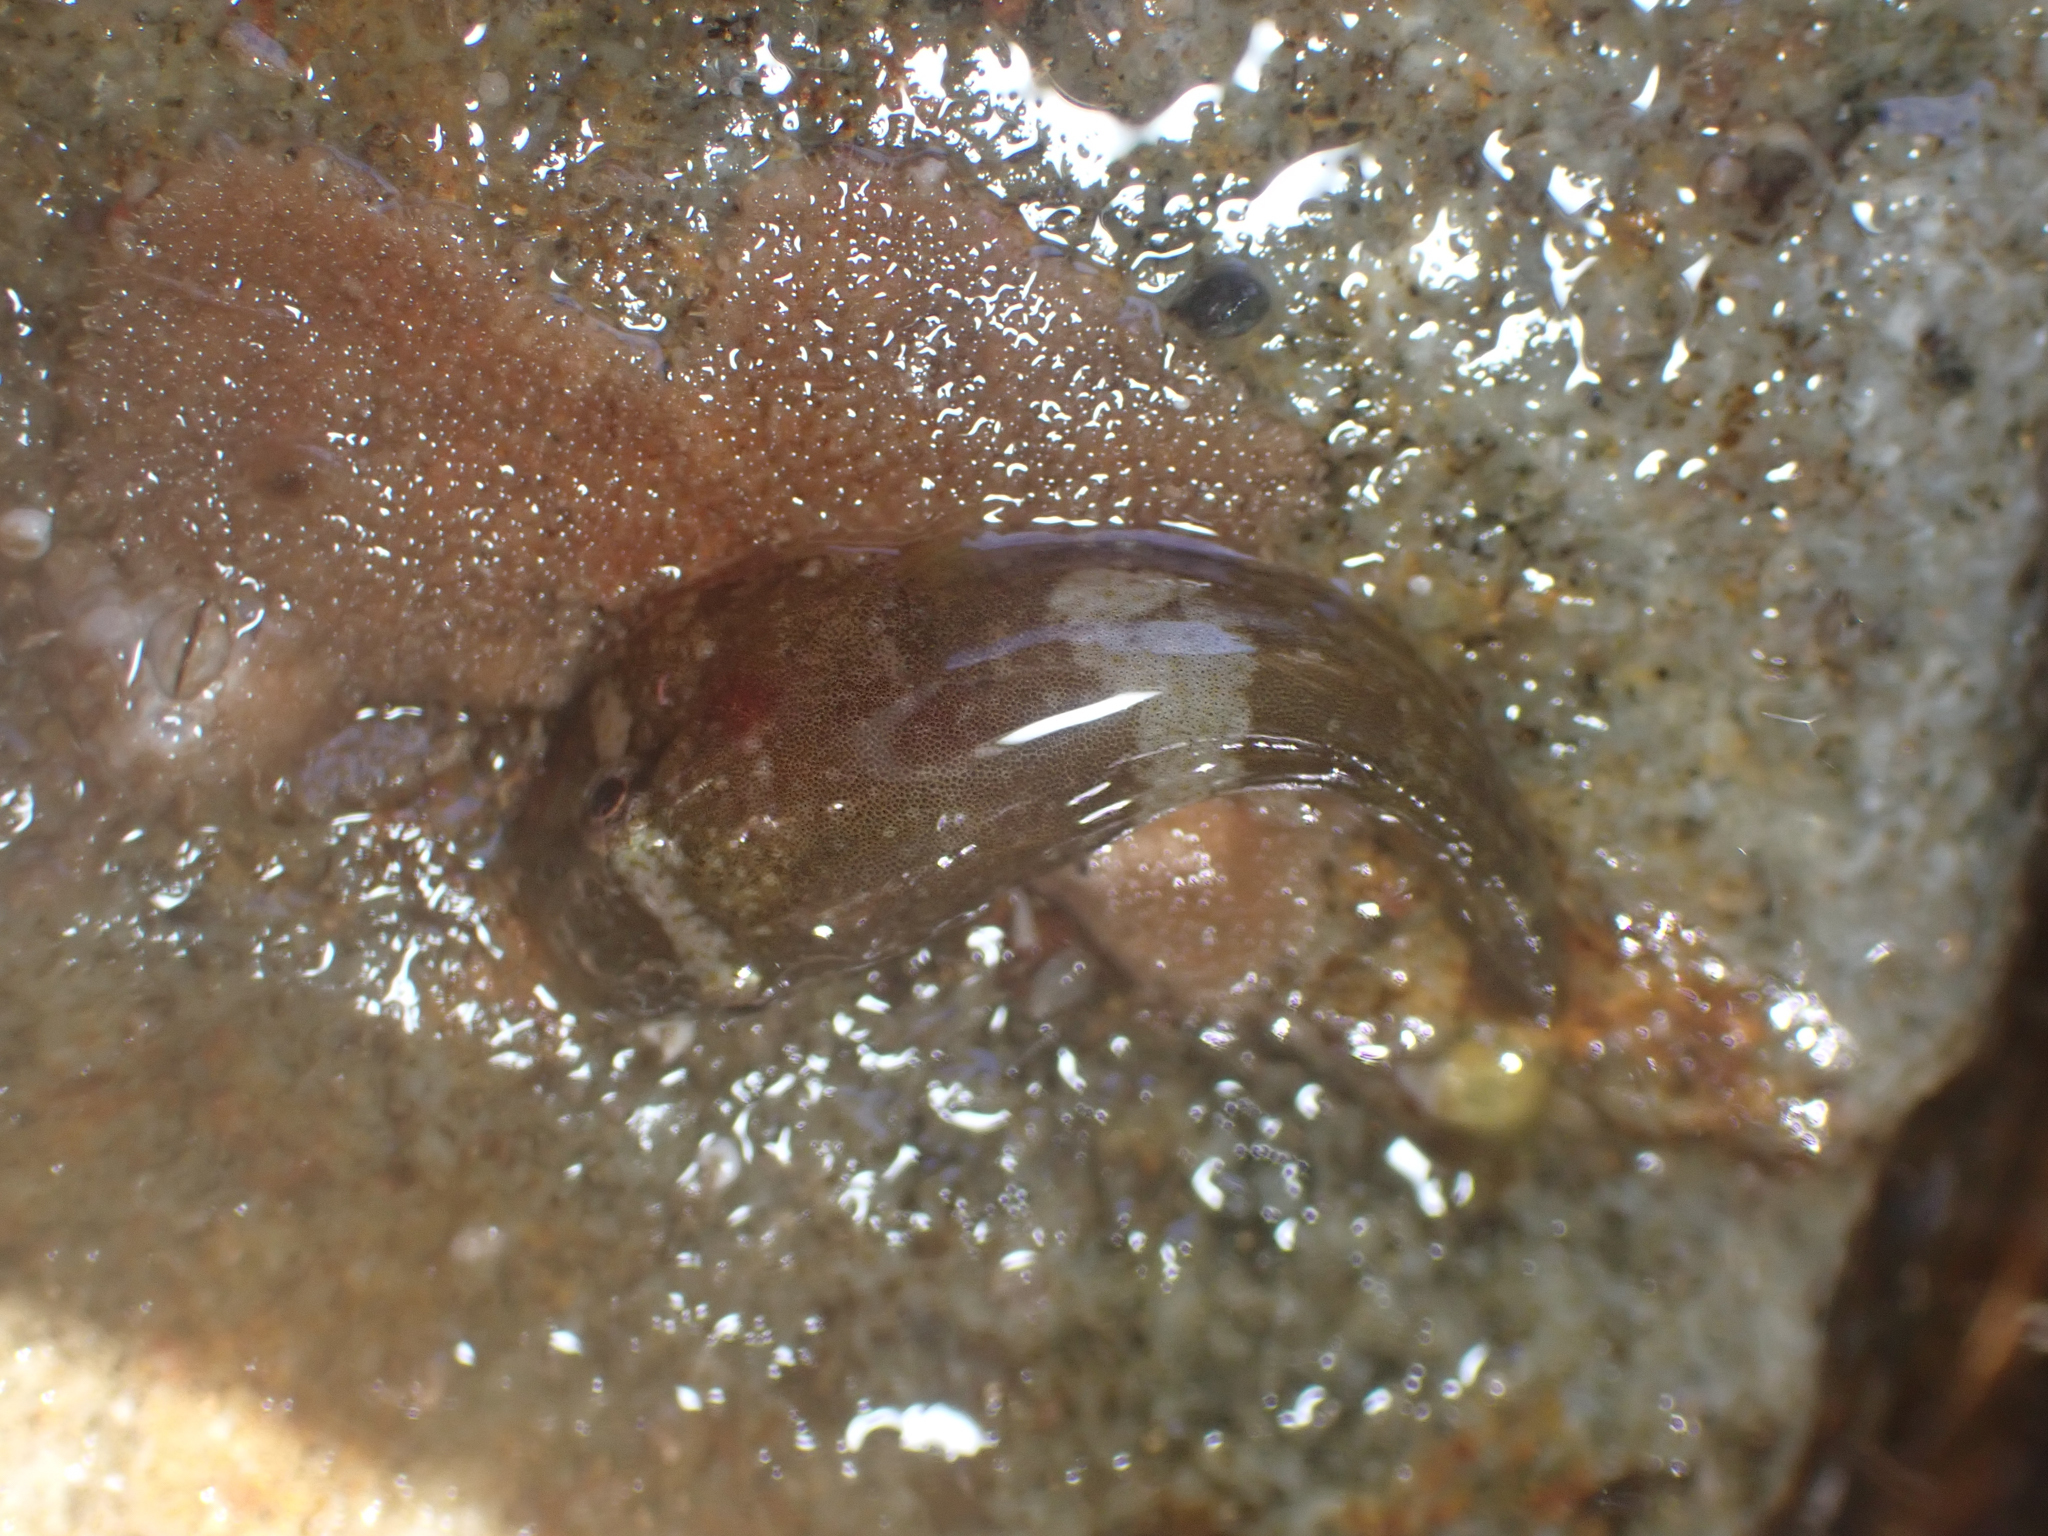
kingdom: Animalia
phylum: Chordata
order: Gobiesociformes
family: Gobiesocidae
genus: Gobiesox
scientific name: Gobiesox rhessodon
